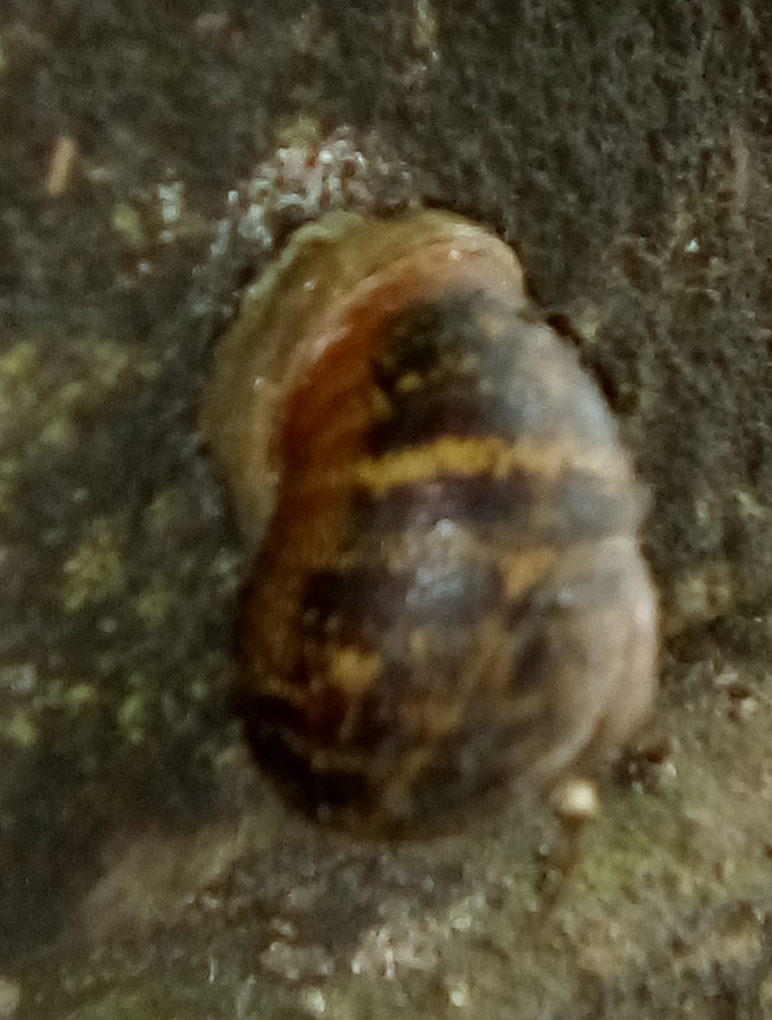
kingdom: Animalia
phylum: Mollusca
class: Gastropoda
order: Stylommatophora
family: Helicidae
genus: Cornu
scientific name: Cornu aspersum
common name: Brown garden snail
